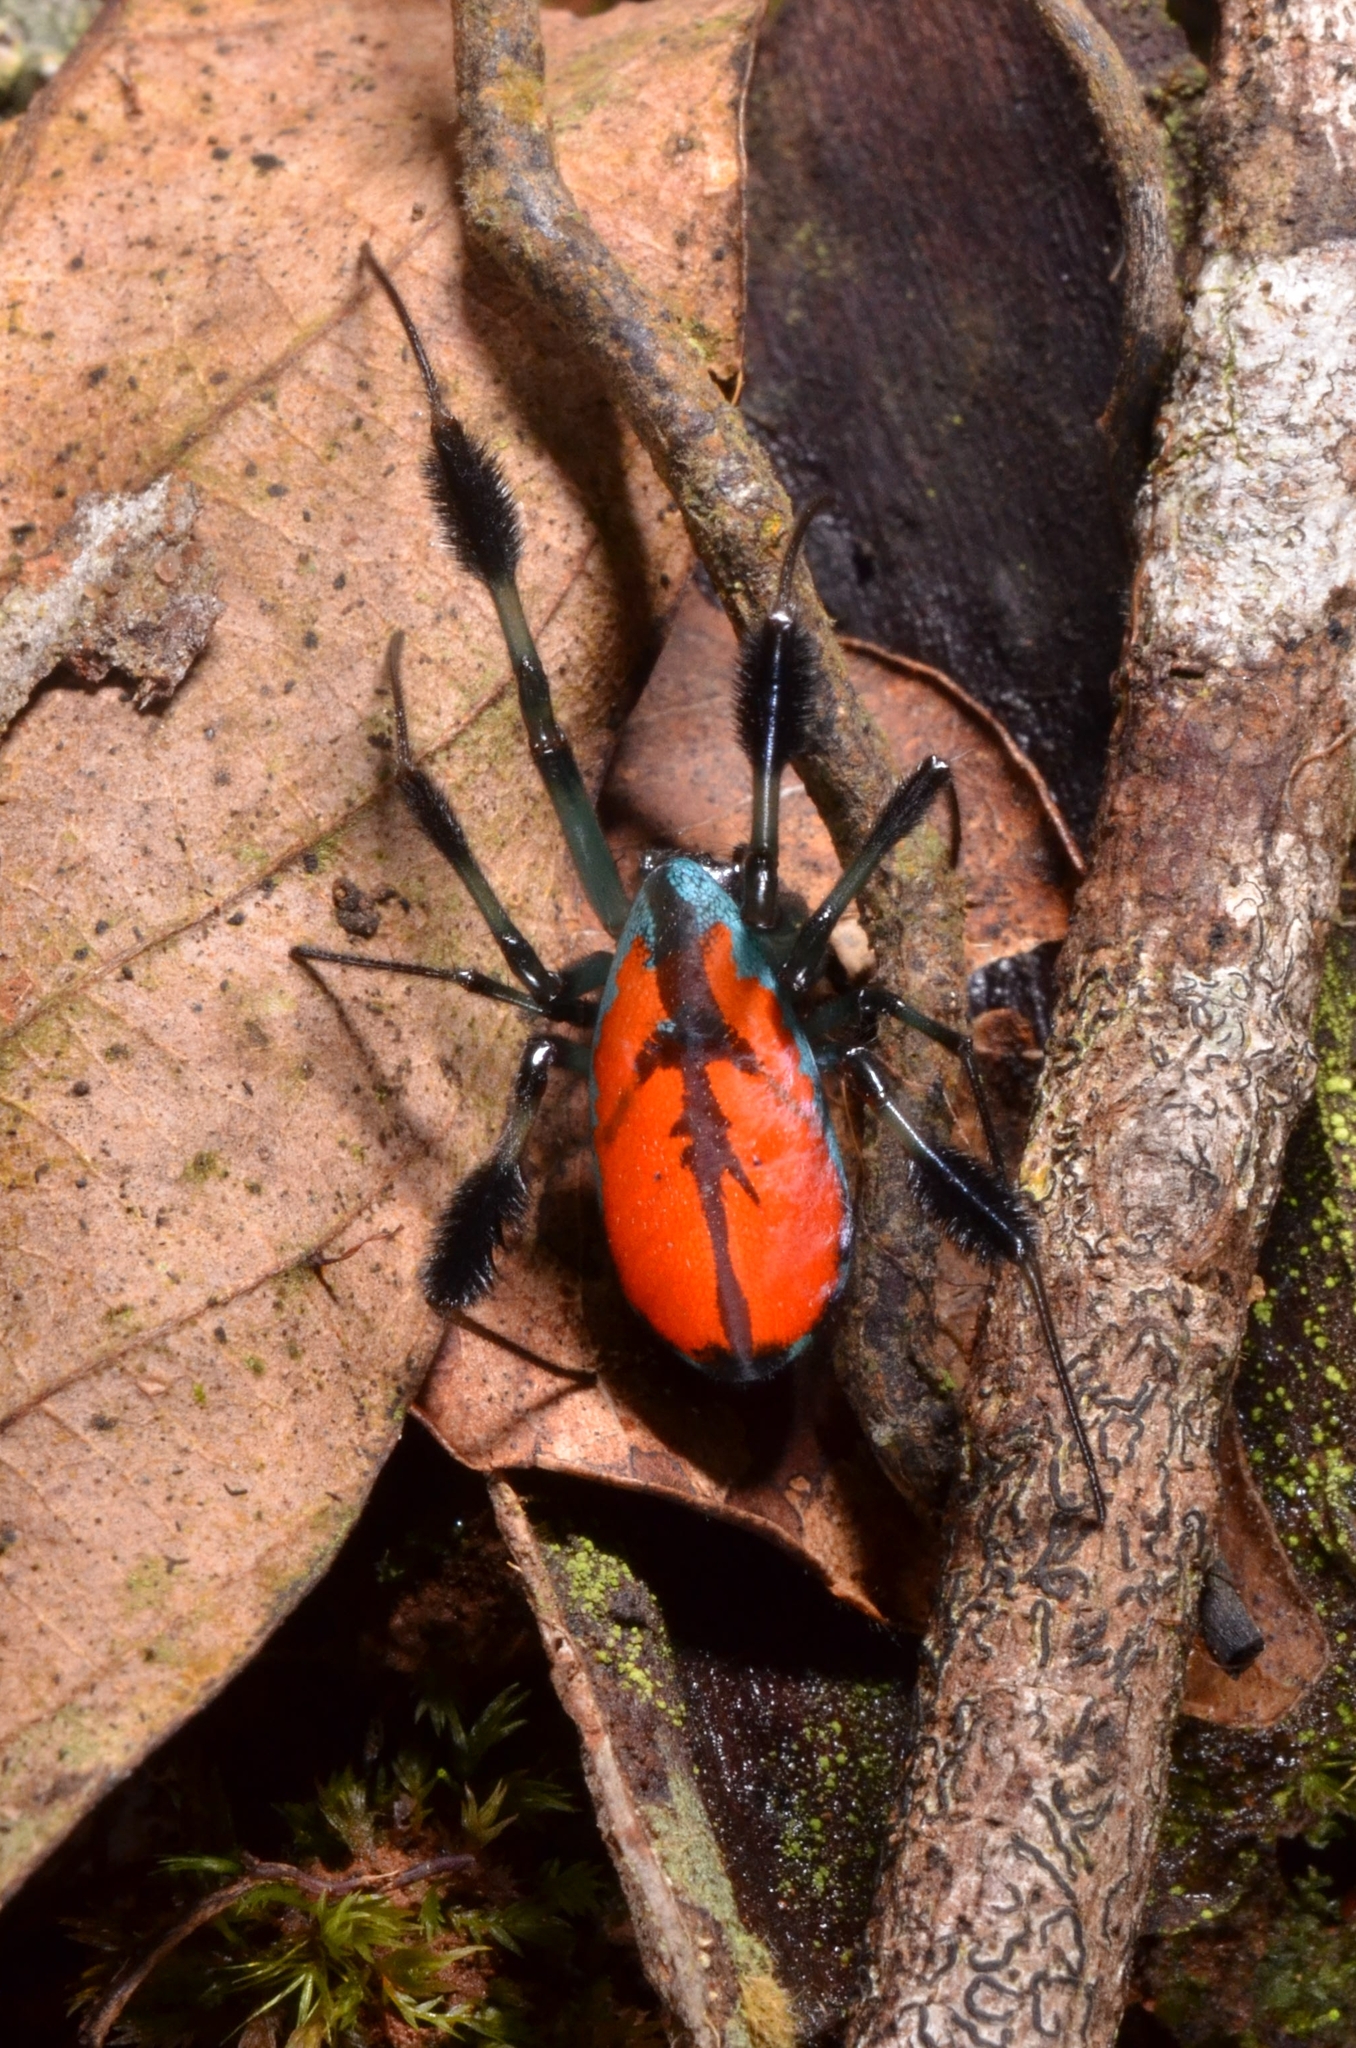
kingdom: Animalia
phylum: Arthropoda
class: Arachnida
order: Araneae
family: Tetragnathidae
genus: Leucauge
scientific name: Leucauge sarawakensis
